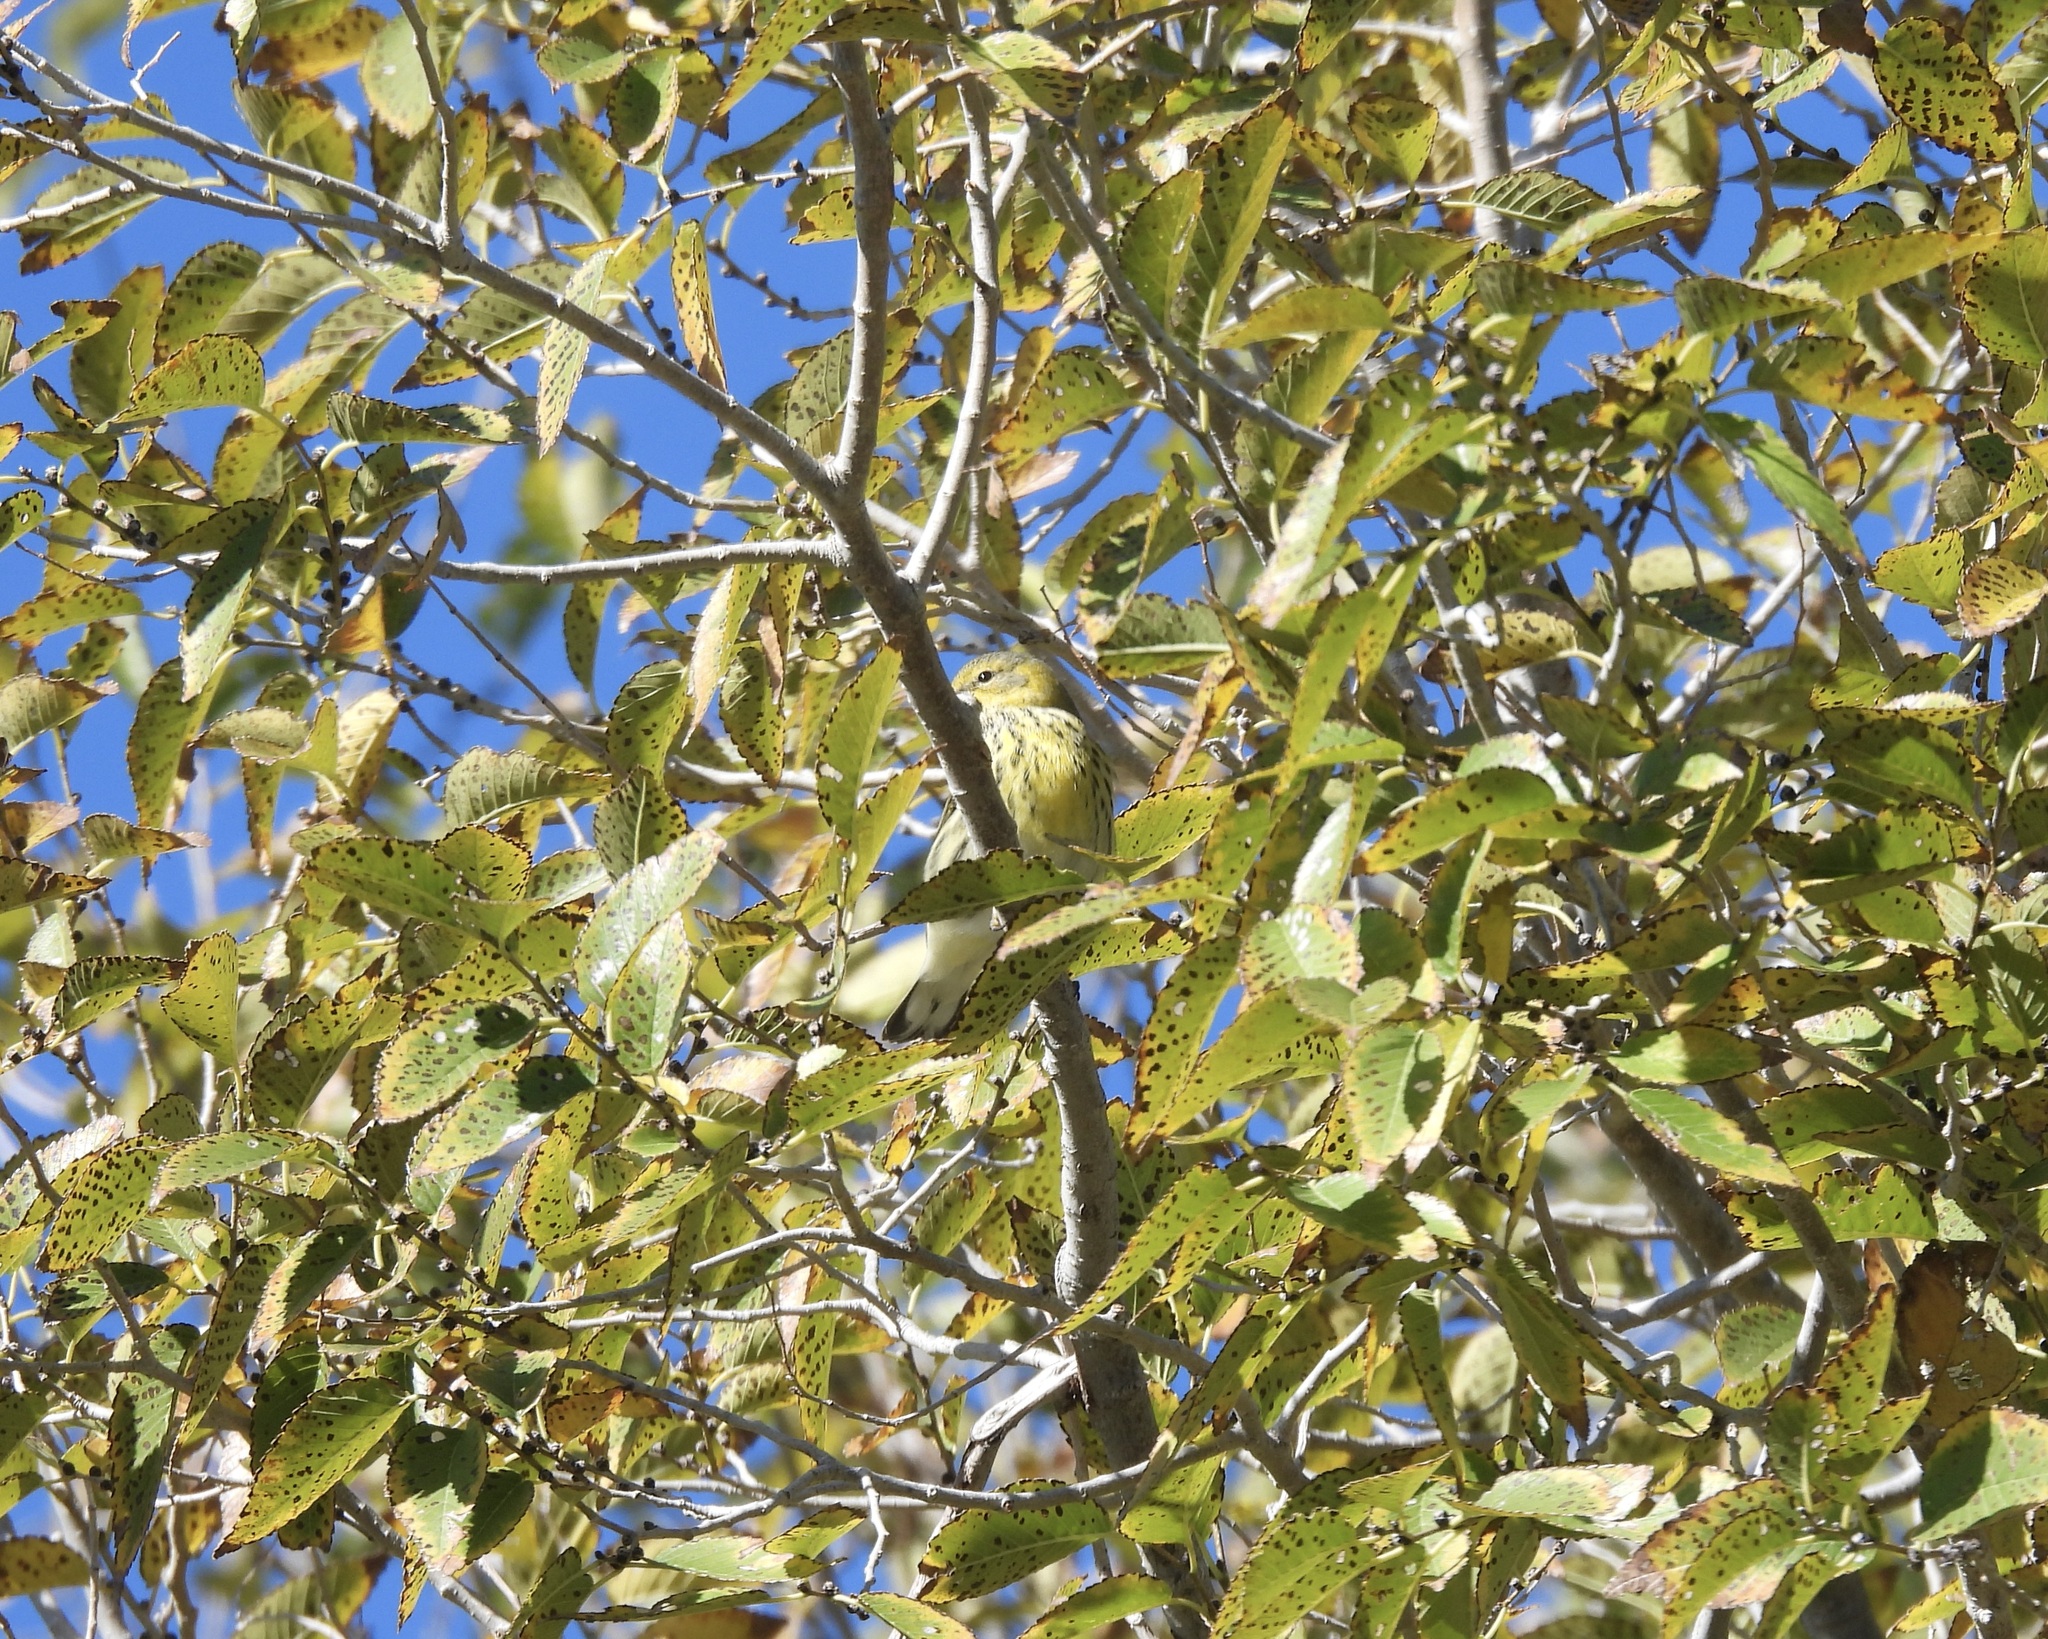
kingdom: Animalia
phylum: Chordata
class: Aves
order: Passeriformes
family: Parulidae
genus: Setophaga
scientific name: Setophaga tigrina
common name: Cape may warbler
